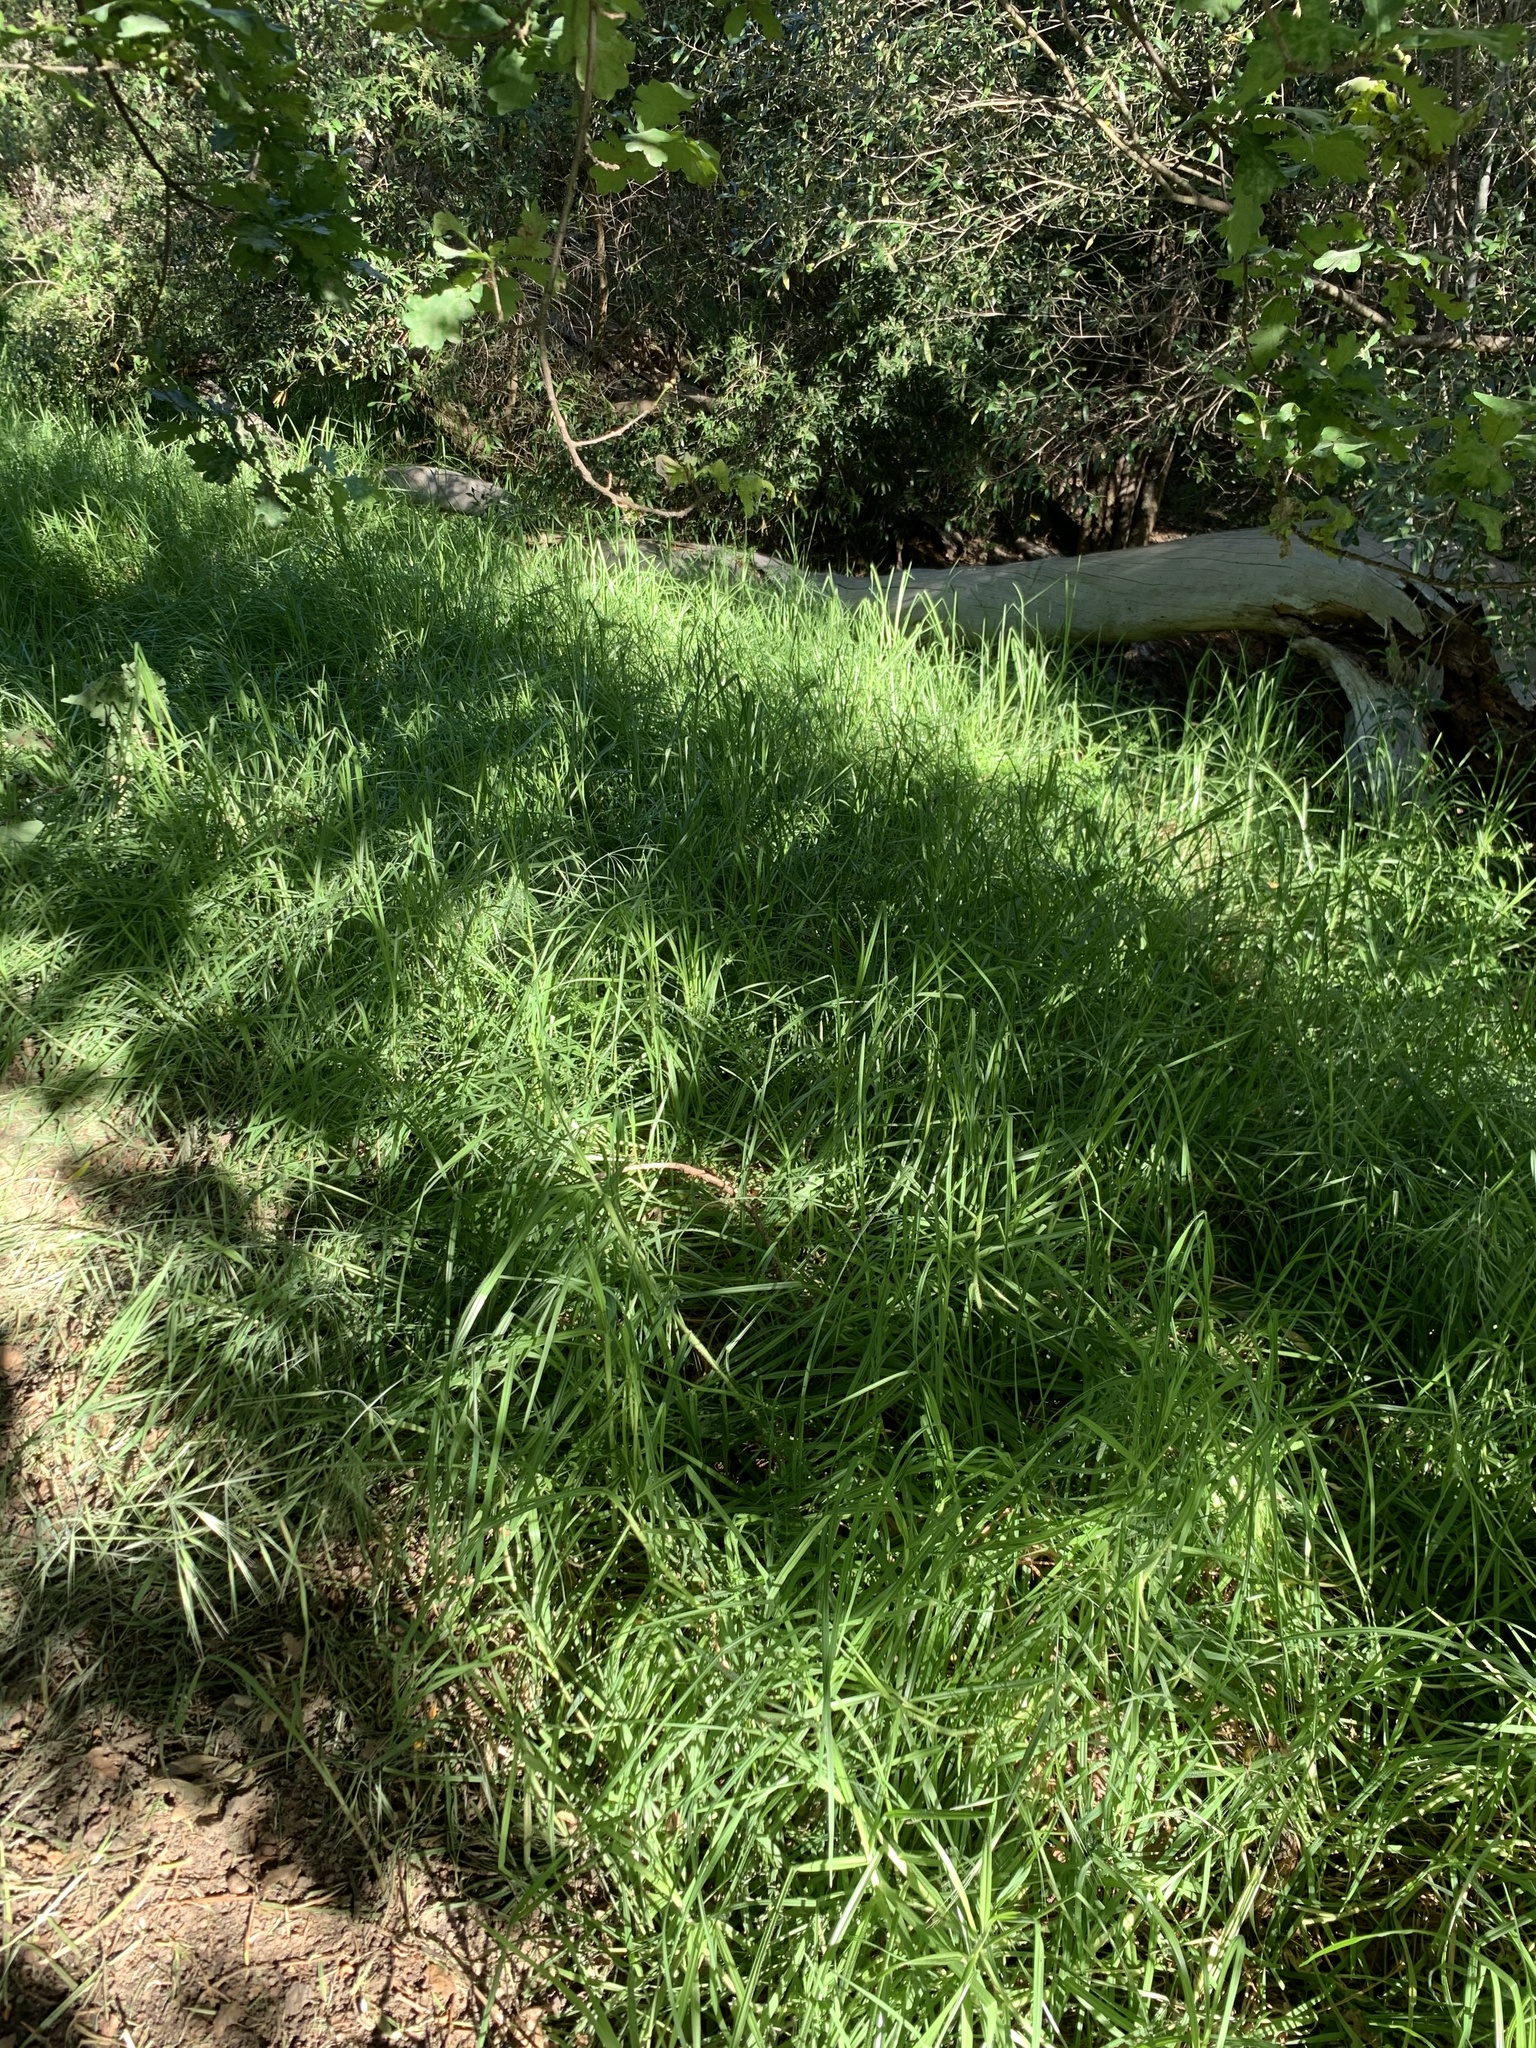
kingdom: Plantae
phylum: Tracheophyta
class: Liliopsida
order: Poales
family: Poaceae
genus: Cenchrus
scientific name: Cenchrus clandestinus
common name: Kikuyugrass
